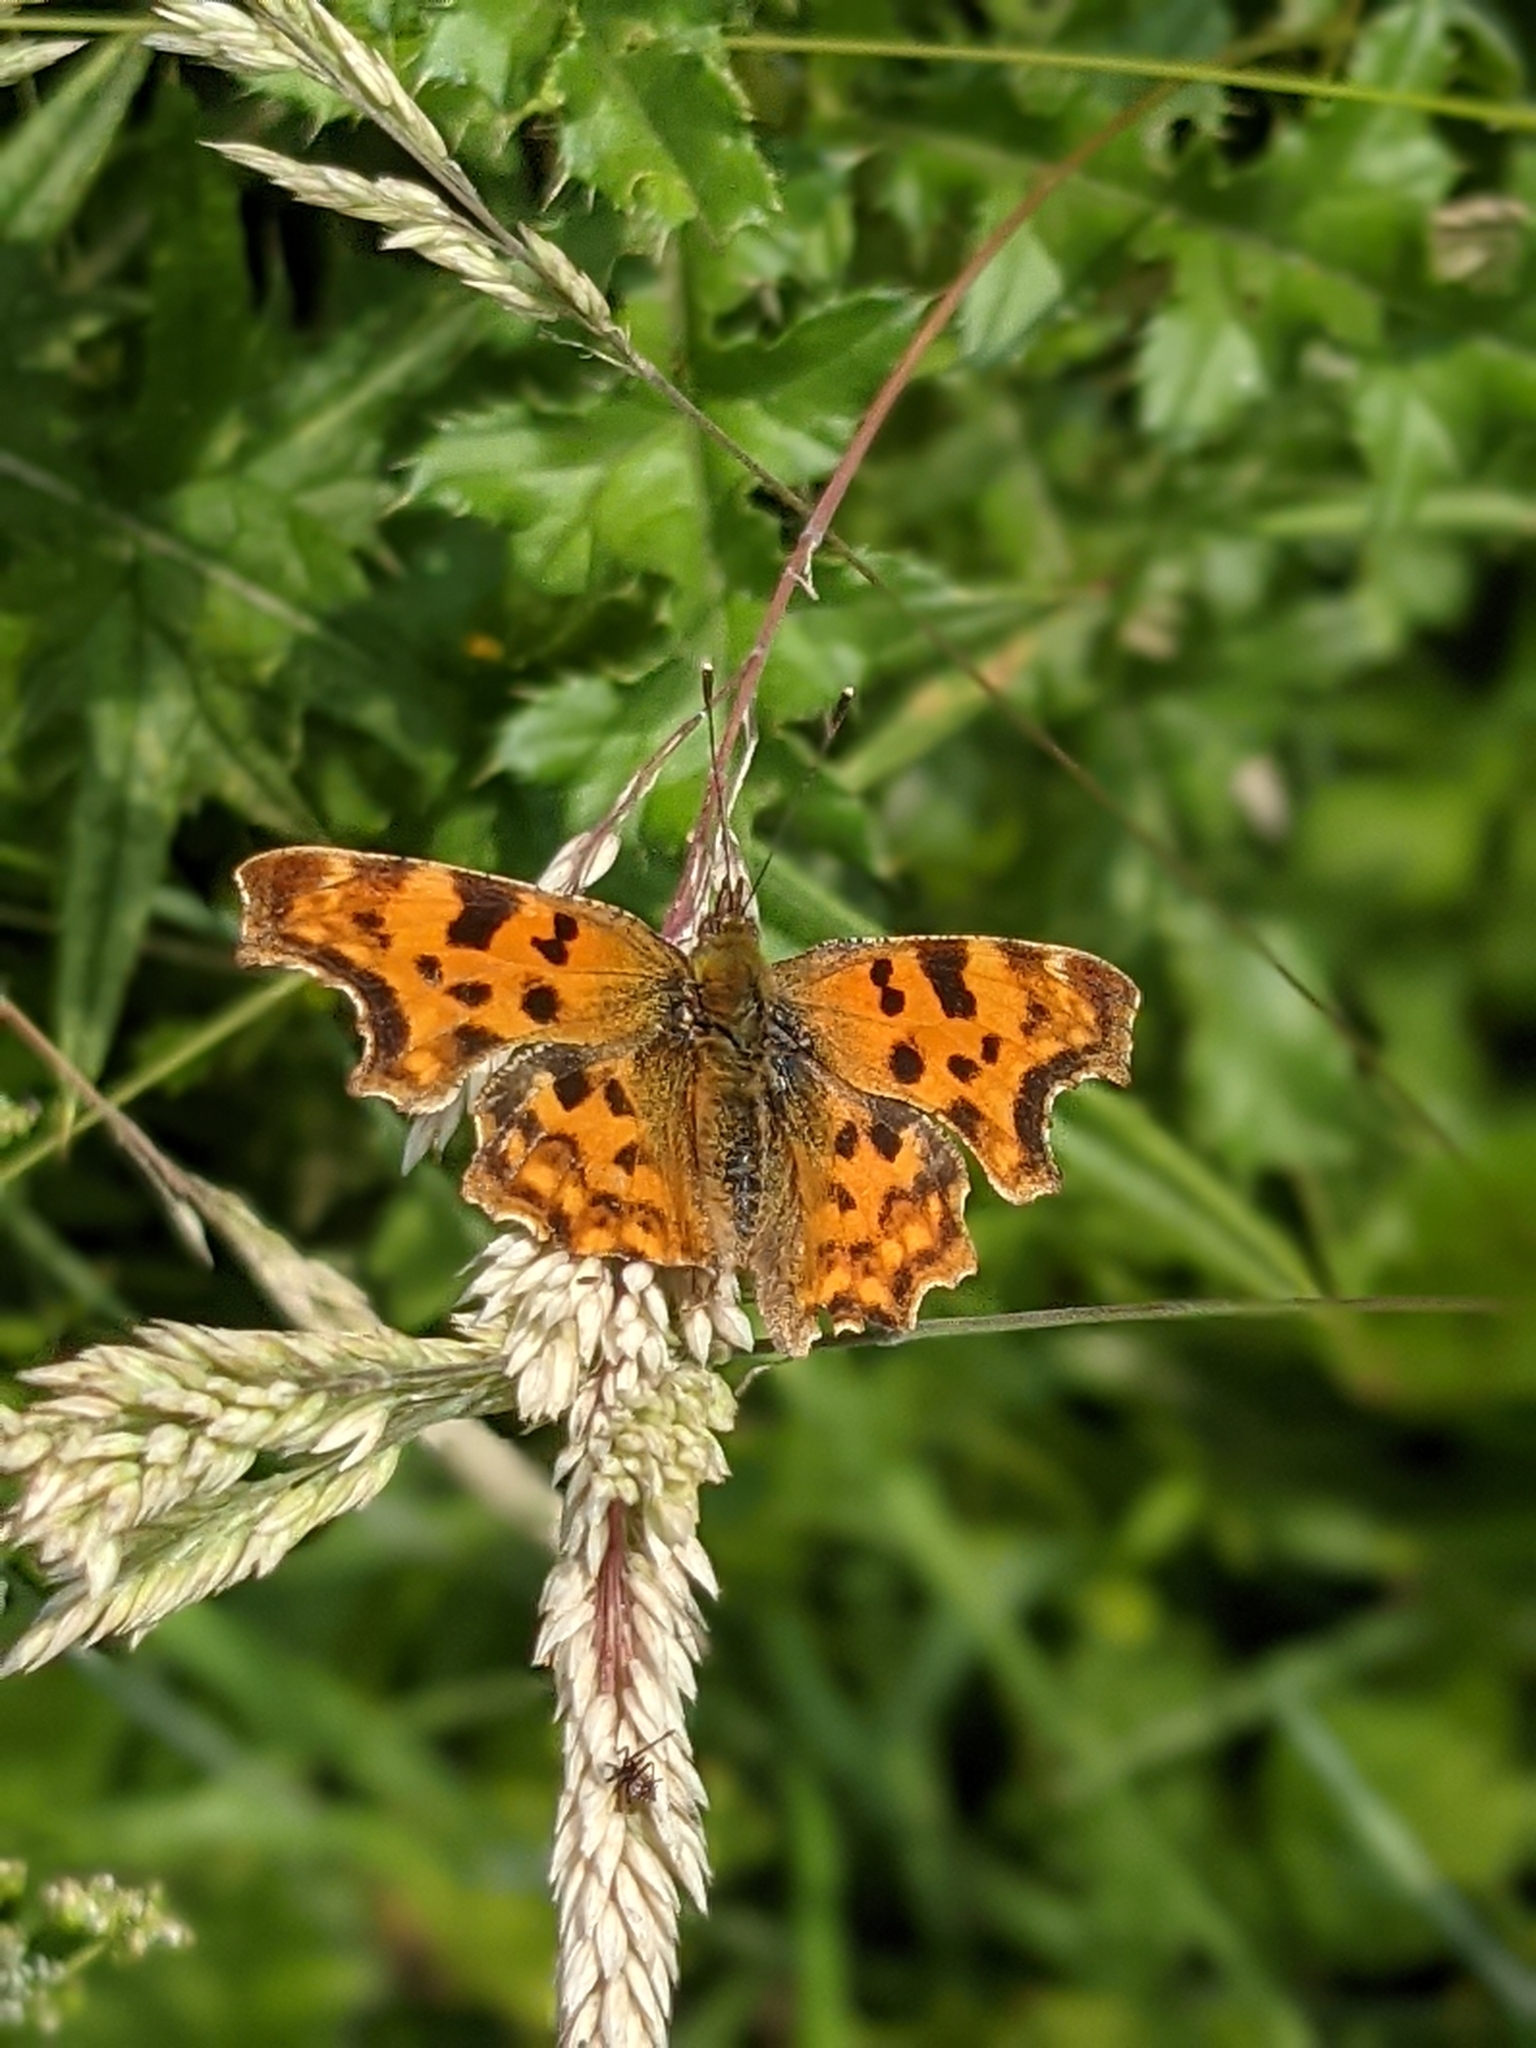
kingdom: Animalia
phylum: Arthropoda
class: Insecta
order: Lepidoptera
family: Nymphalidae
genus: Polygonia
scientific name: Polygonia c-album
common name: Comma
